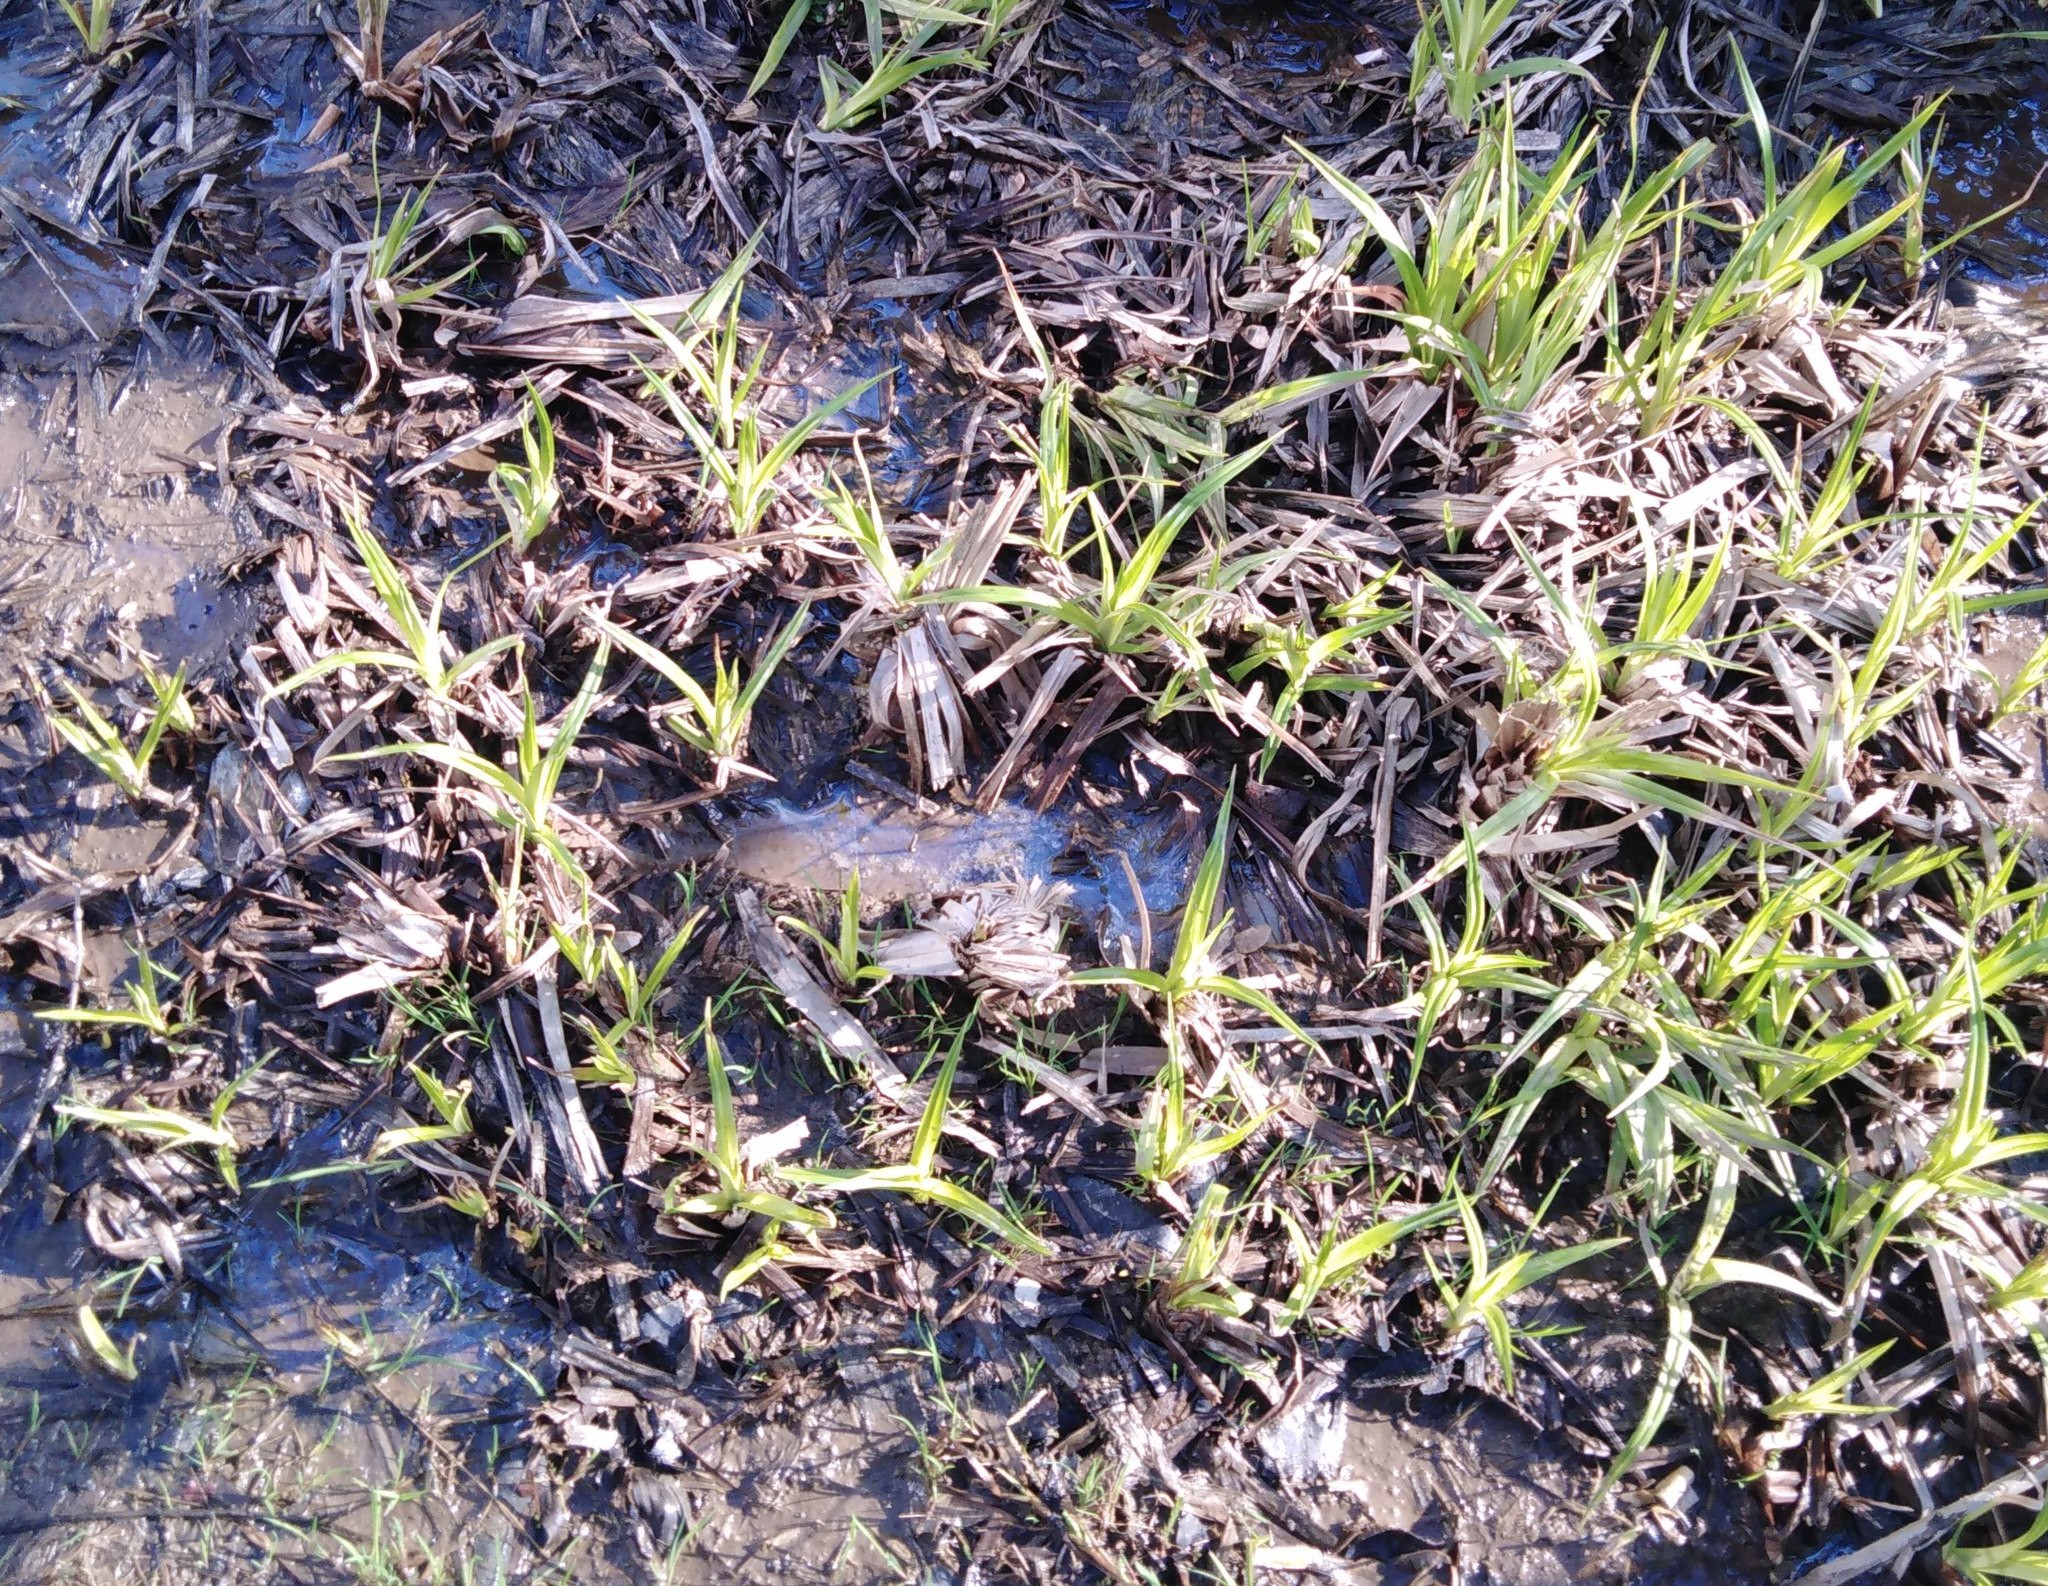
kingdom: Plantae
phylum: Tracheophyta
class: Liliopsida
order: Poales
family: Cyperaceae
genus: Scirpus
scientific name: Scirpus sylvaticus
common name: Wood club-rush
